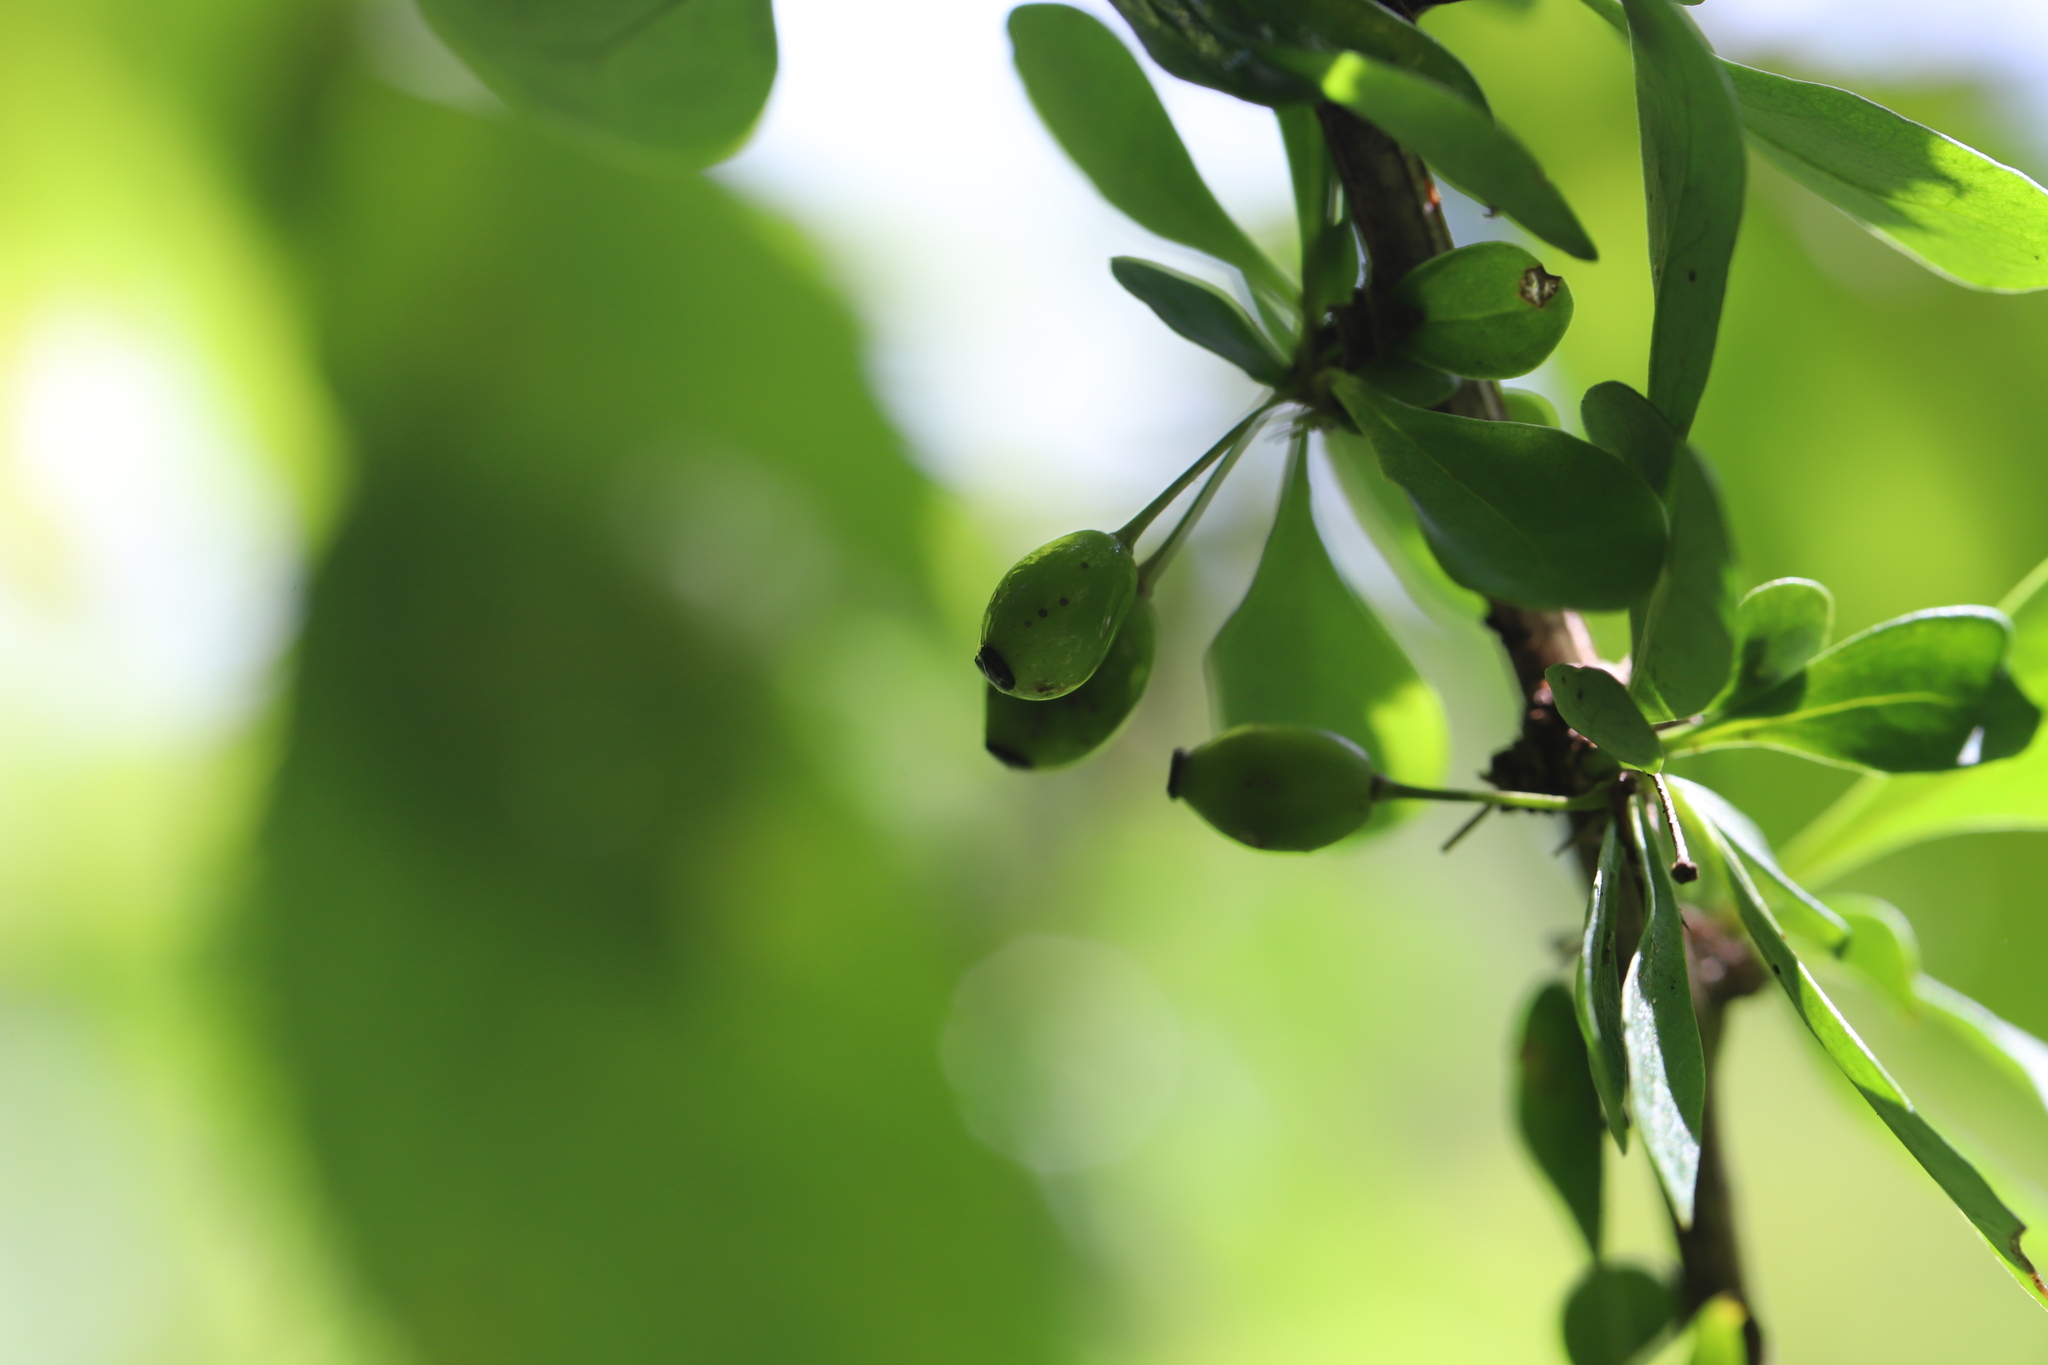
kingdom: Plantae
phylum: Tracheophyta
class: Magnoliopsida
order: Ranunculales
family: Berberidaceae
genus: Berberis
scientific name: Berberis thunbergii
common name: Japanese barberry
